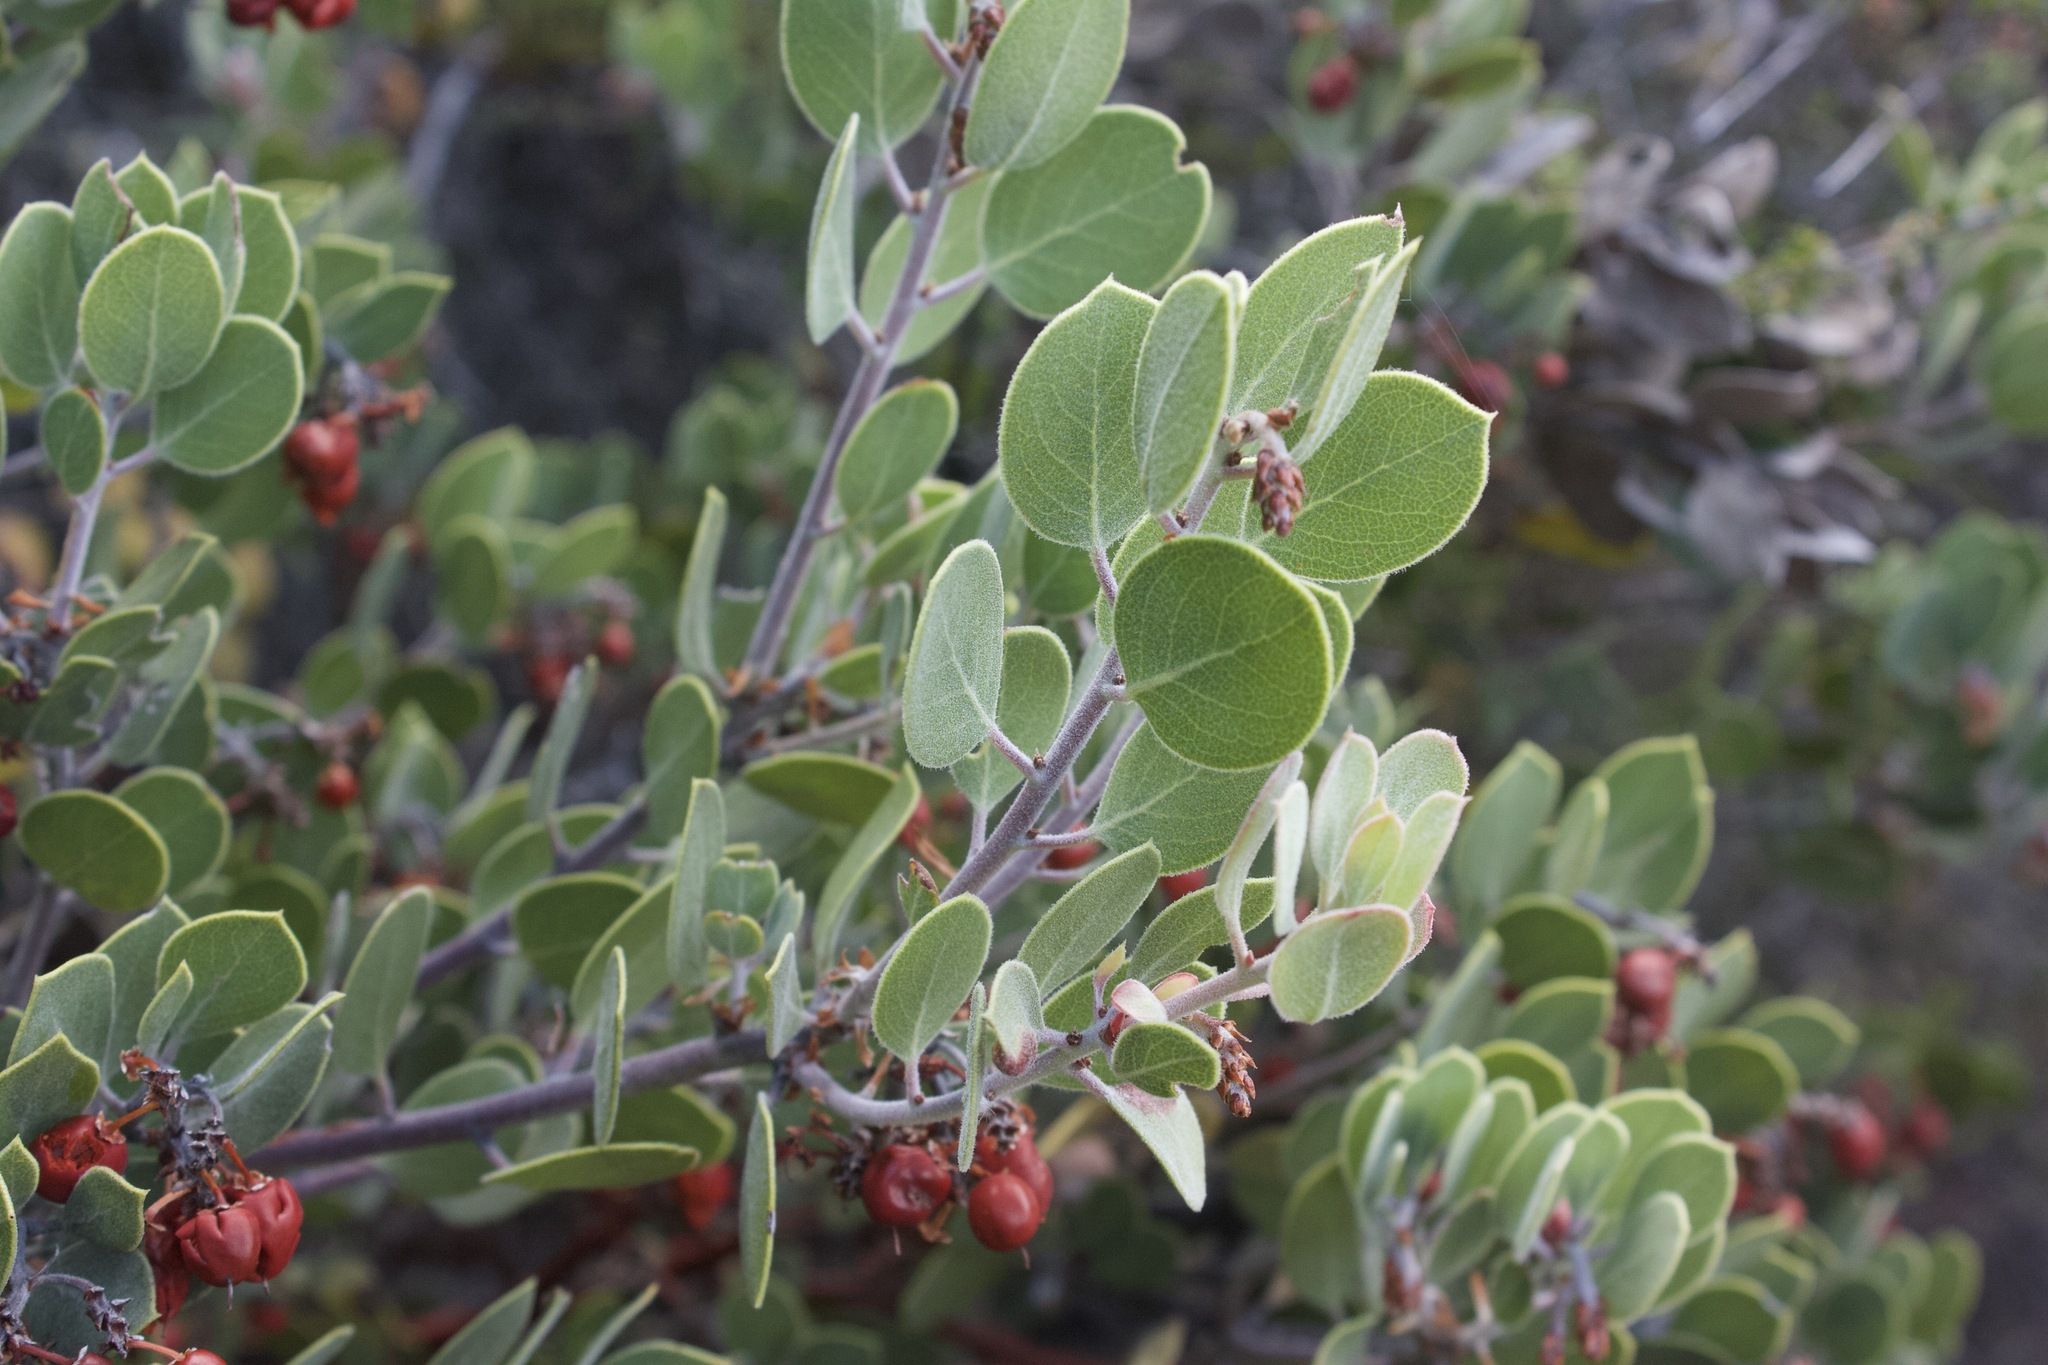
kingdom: Plantae
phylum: Tracheophyta
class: Magnoliopsida
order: Ericales
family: Ericaceae
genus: Arctostaphylos
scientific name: Arctostaphylos montana
